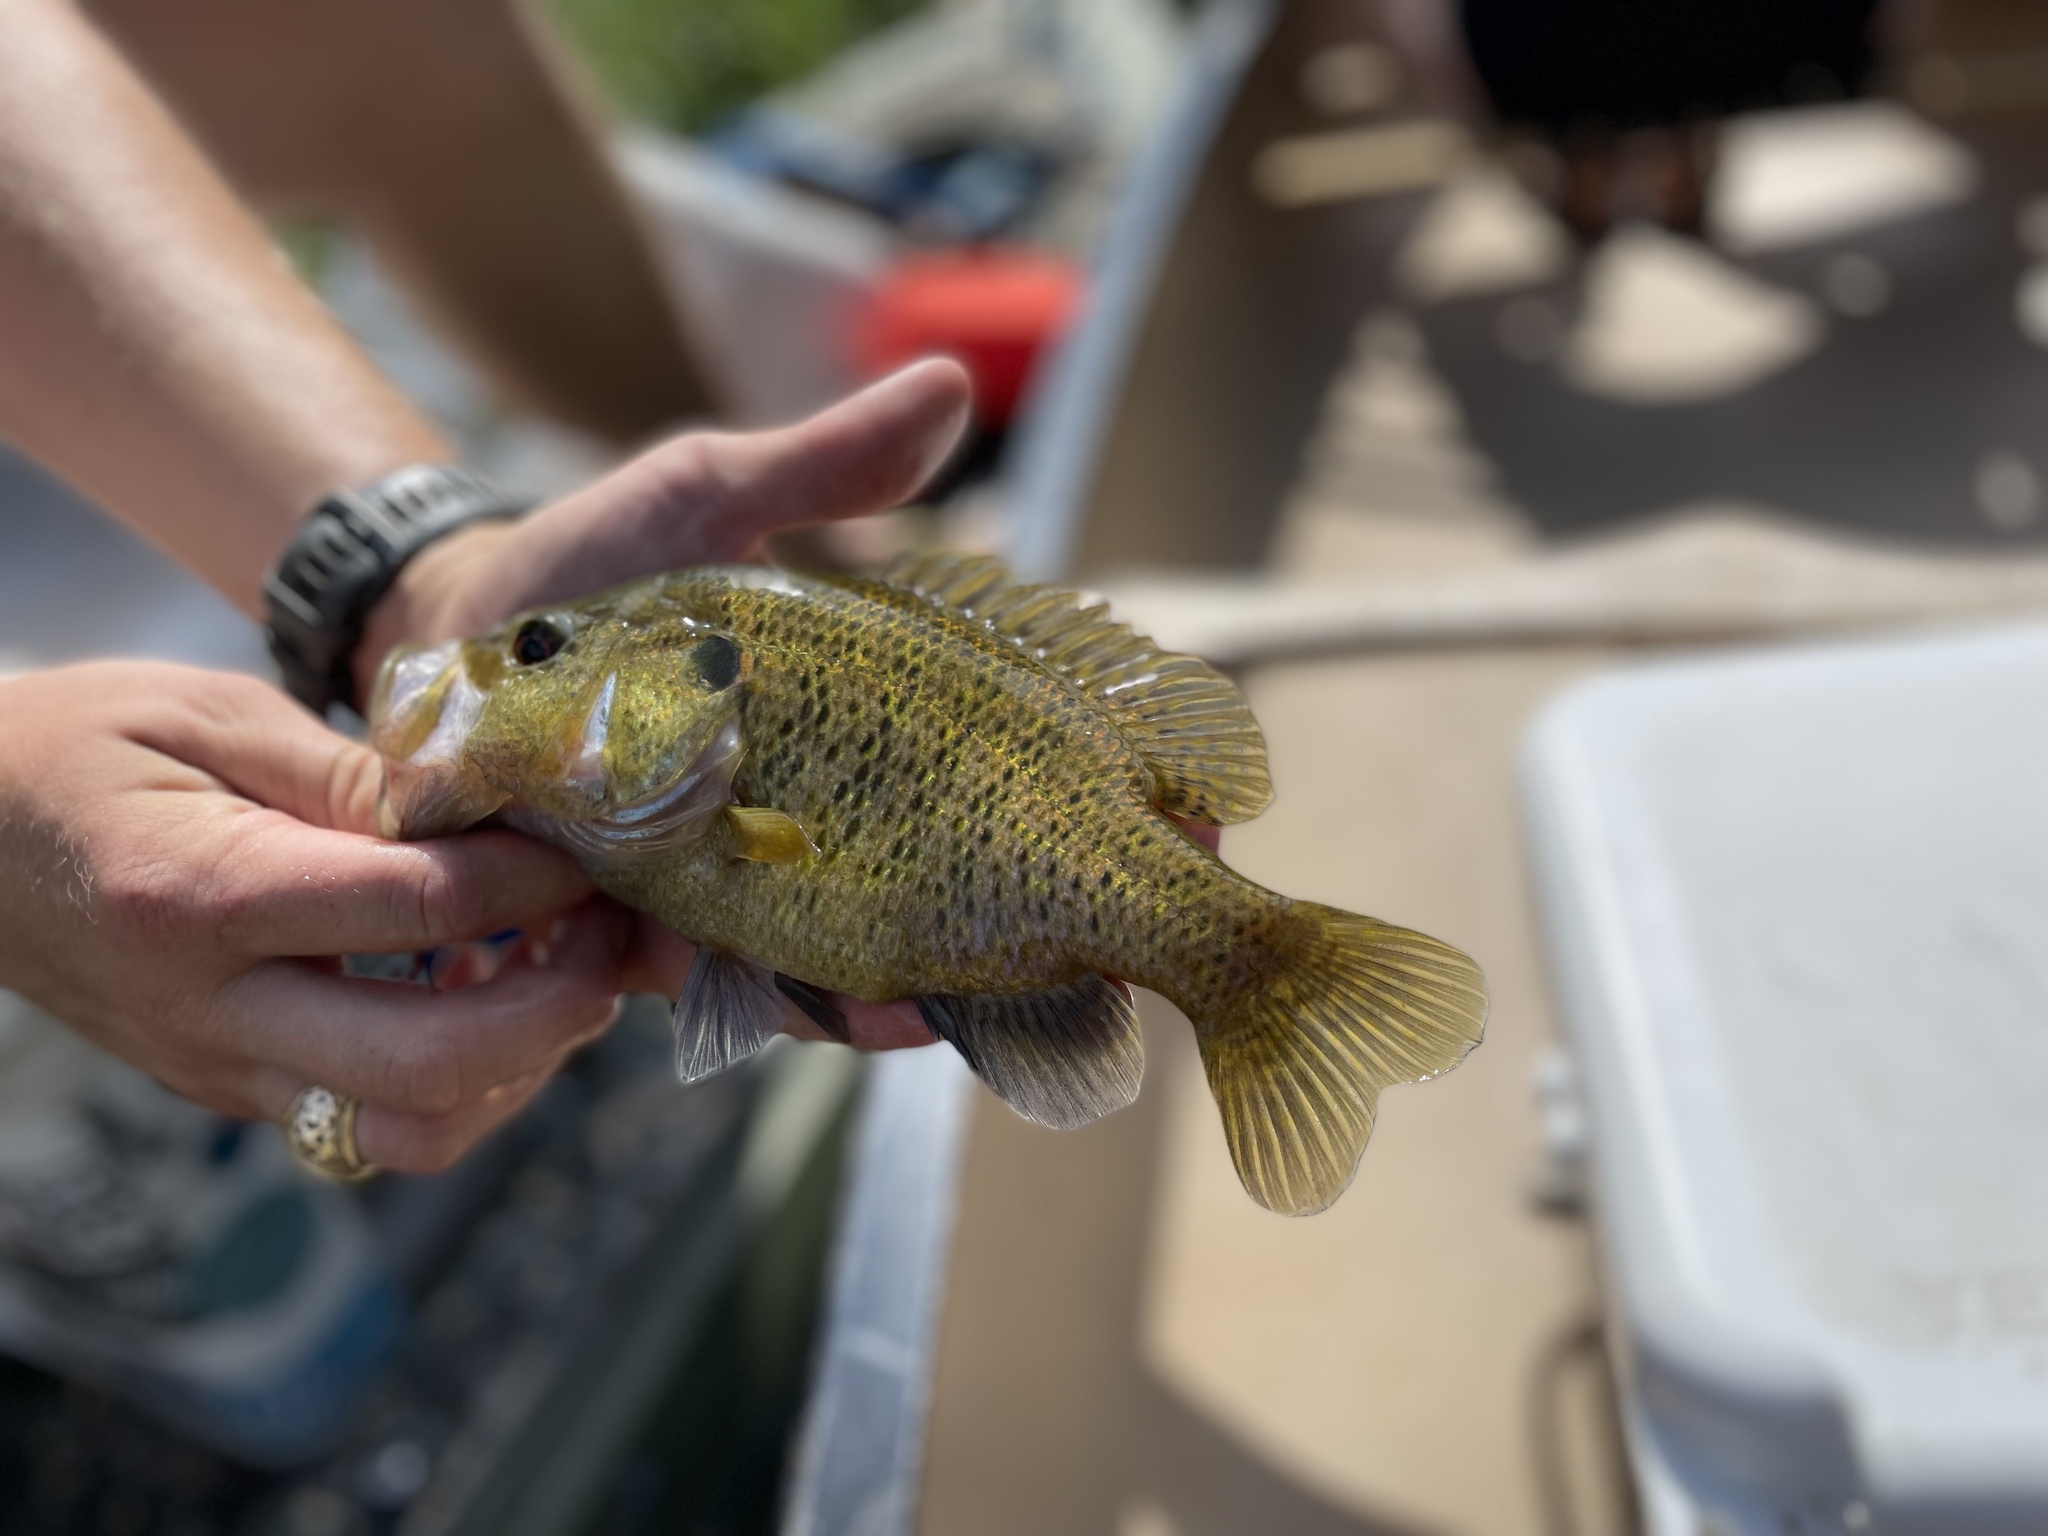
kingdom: Animalia
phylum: Chordata
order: Perciformes
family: Centrarchidae
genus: Lepomis
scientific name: Lepomis gulosus
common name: Warmouth
